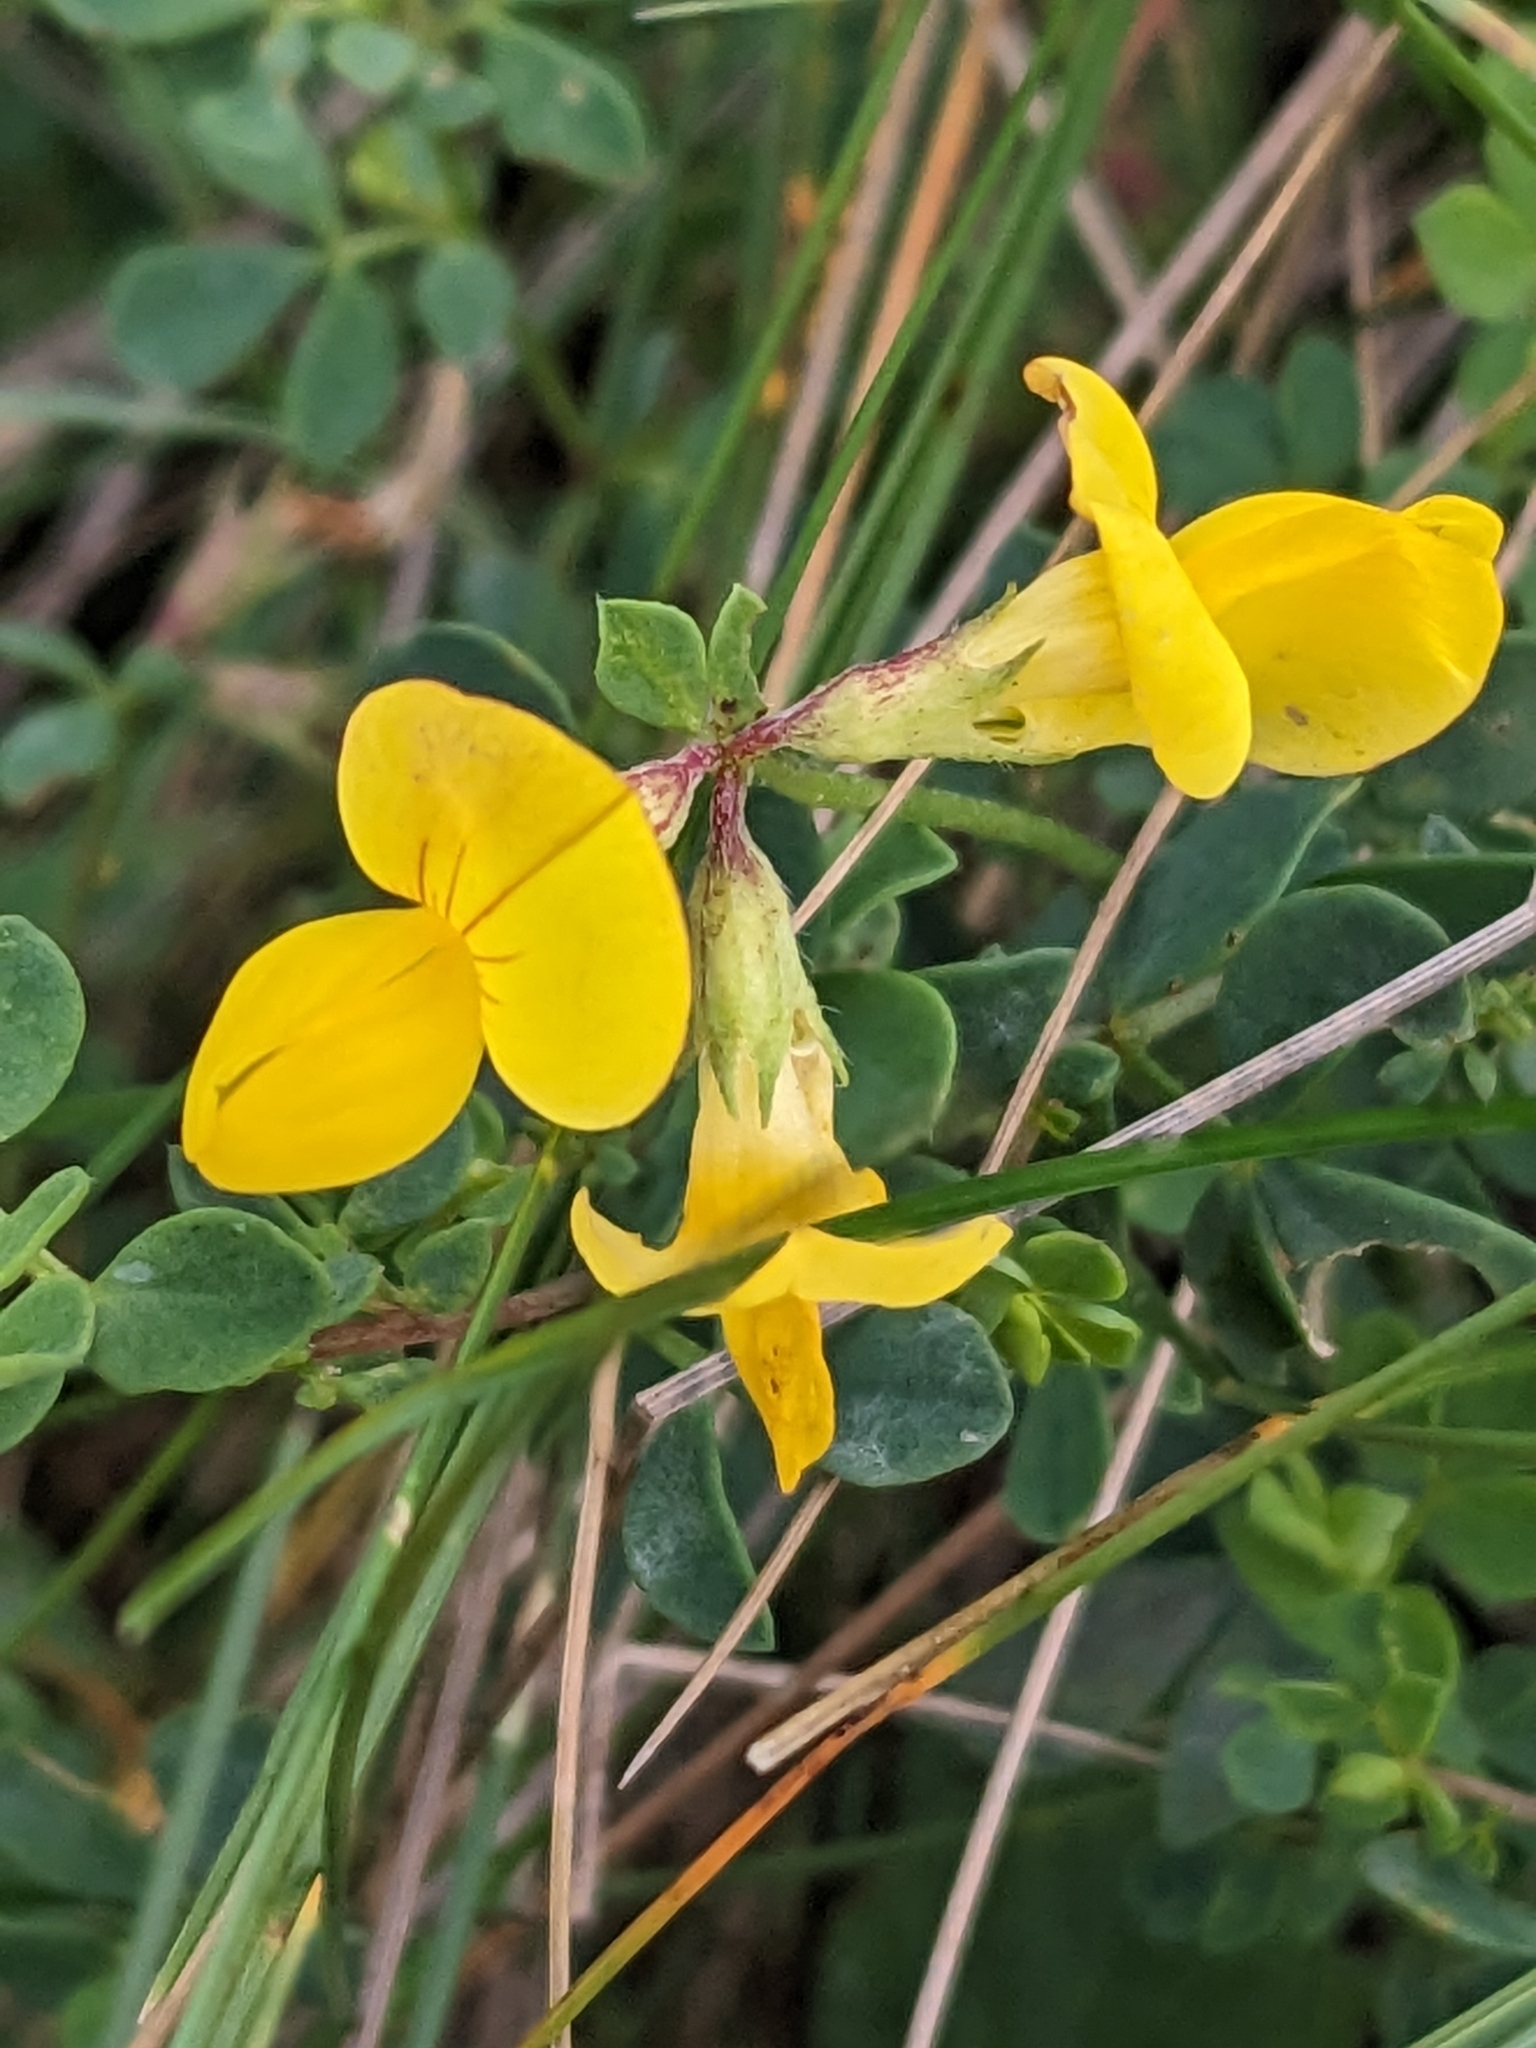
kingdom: Plantae
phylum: Tracheophyta
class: Magnoliopsida
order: Fabales
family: Fabaceae
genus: Lotus
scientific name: Lotus corniculatus
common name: Common bird's-foot-trefoil
